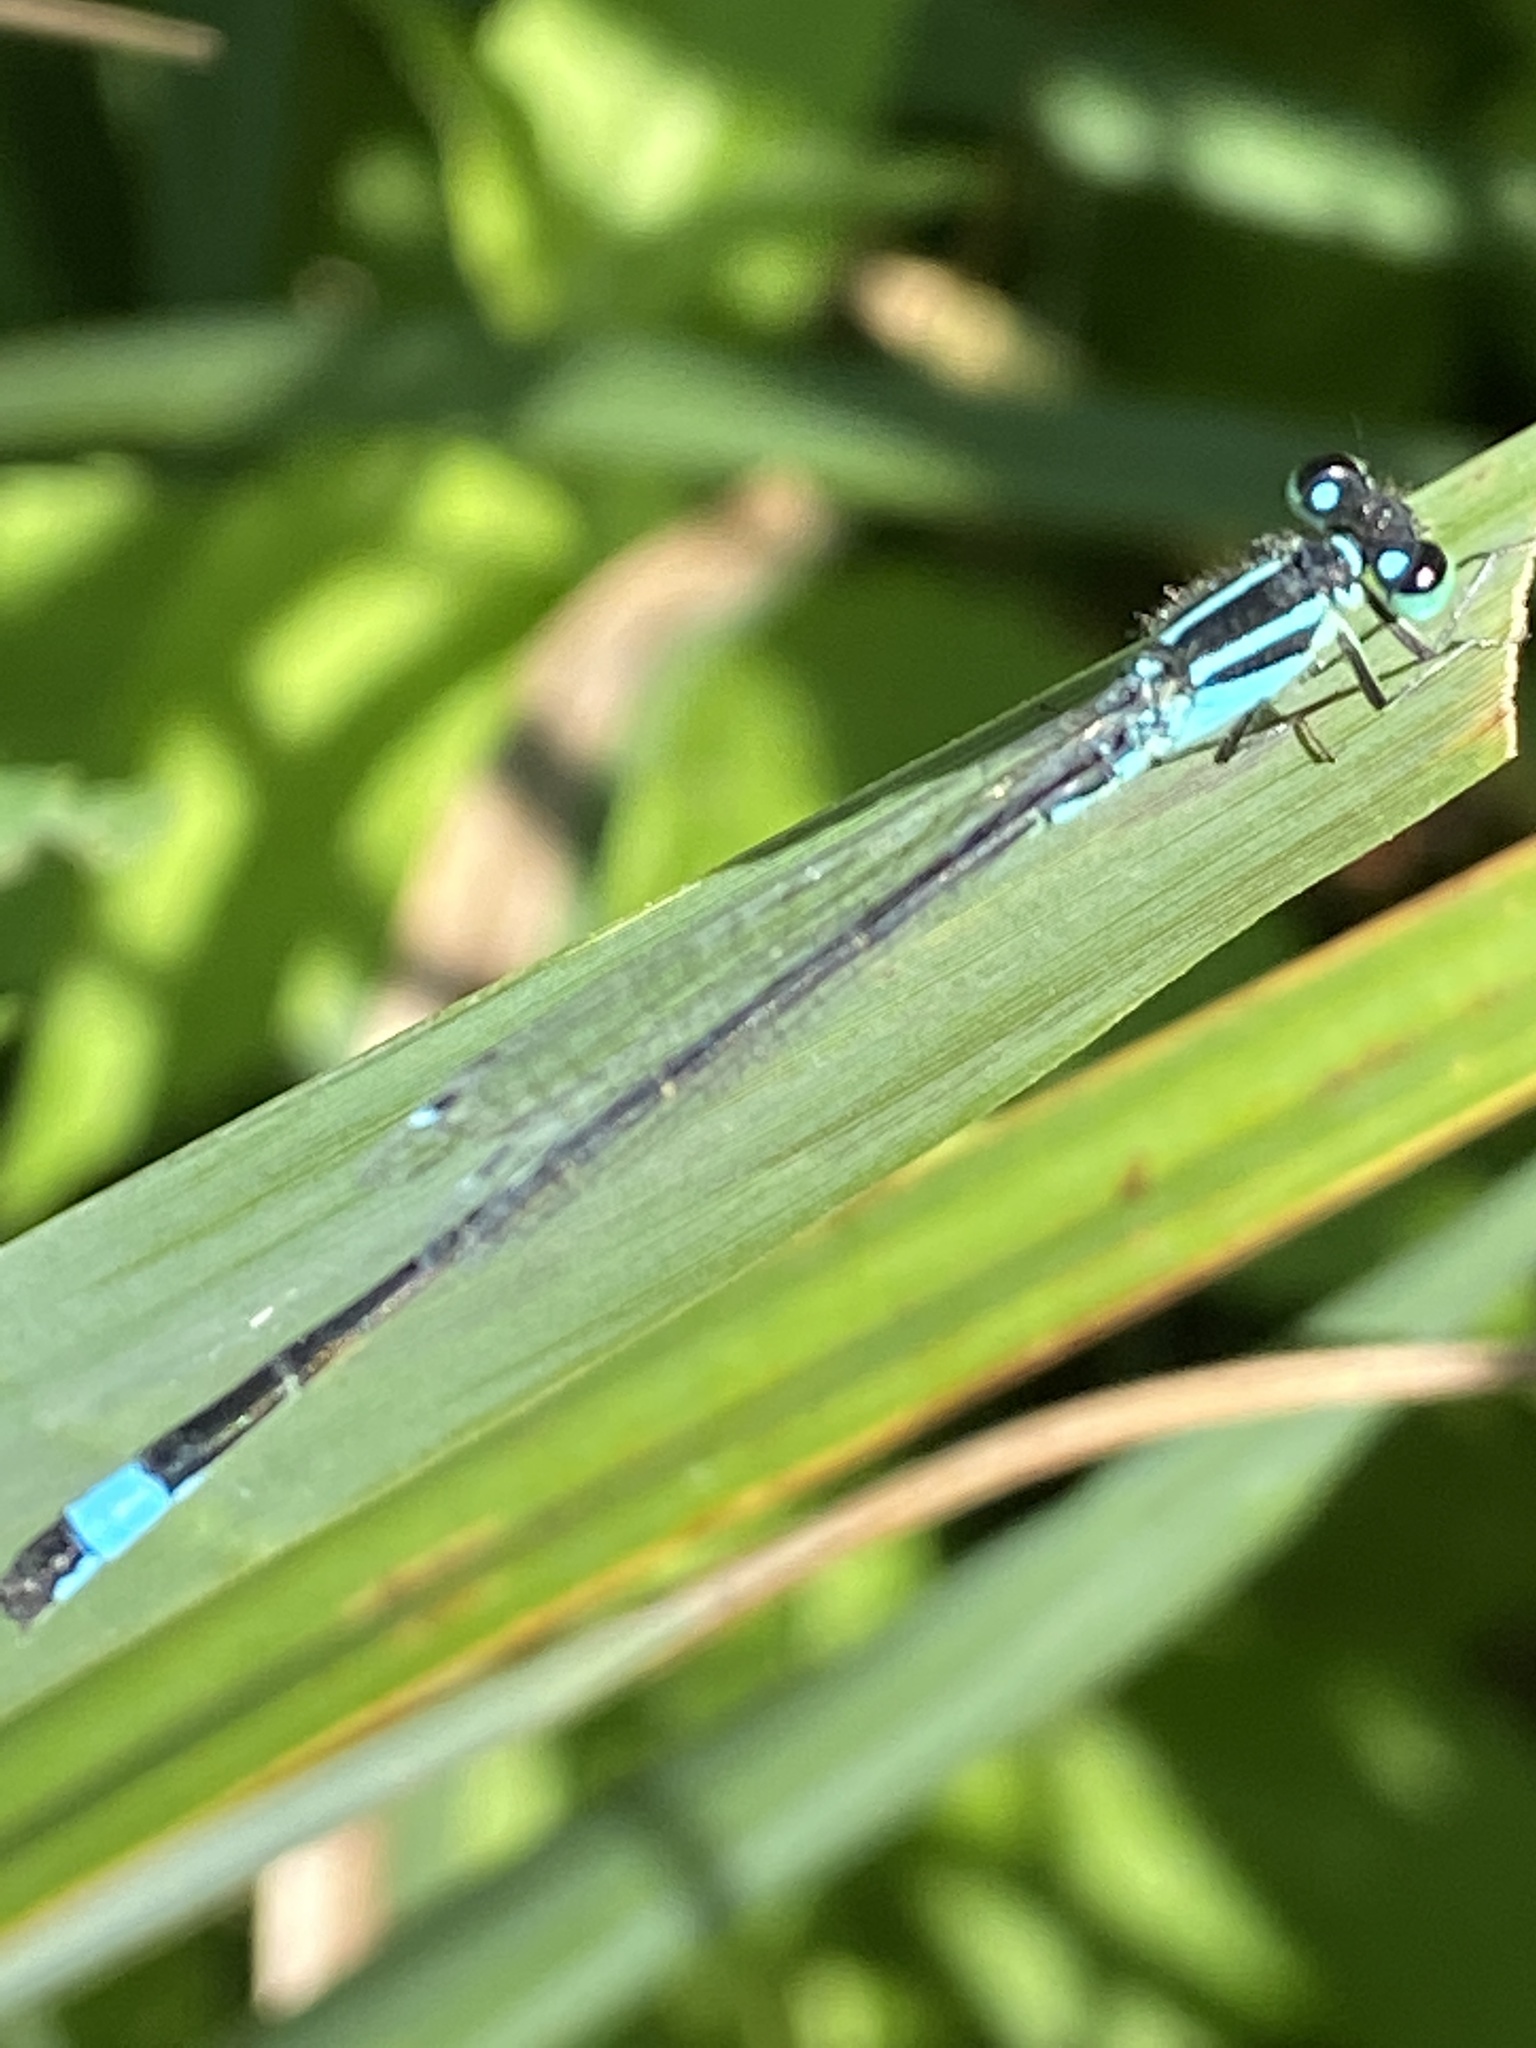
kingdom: Animalia
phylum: Arthropoda
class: Insecta
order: Odonata
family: Coenagrionidae
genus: Ischnura
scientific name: Ischnura elegans
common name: Blue-tailed damselfly
